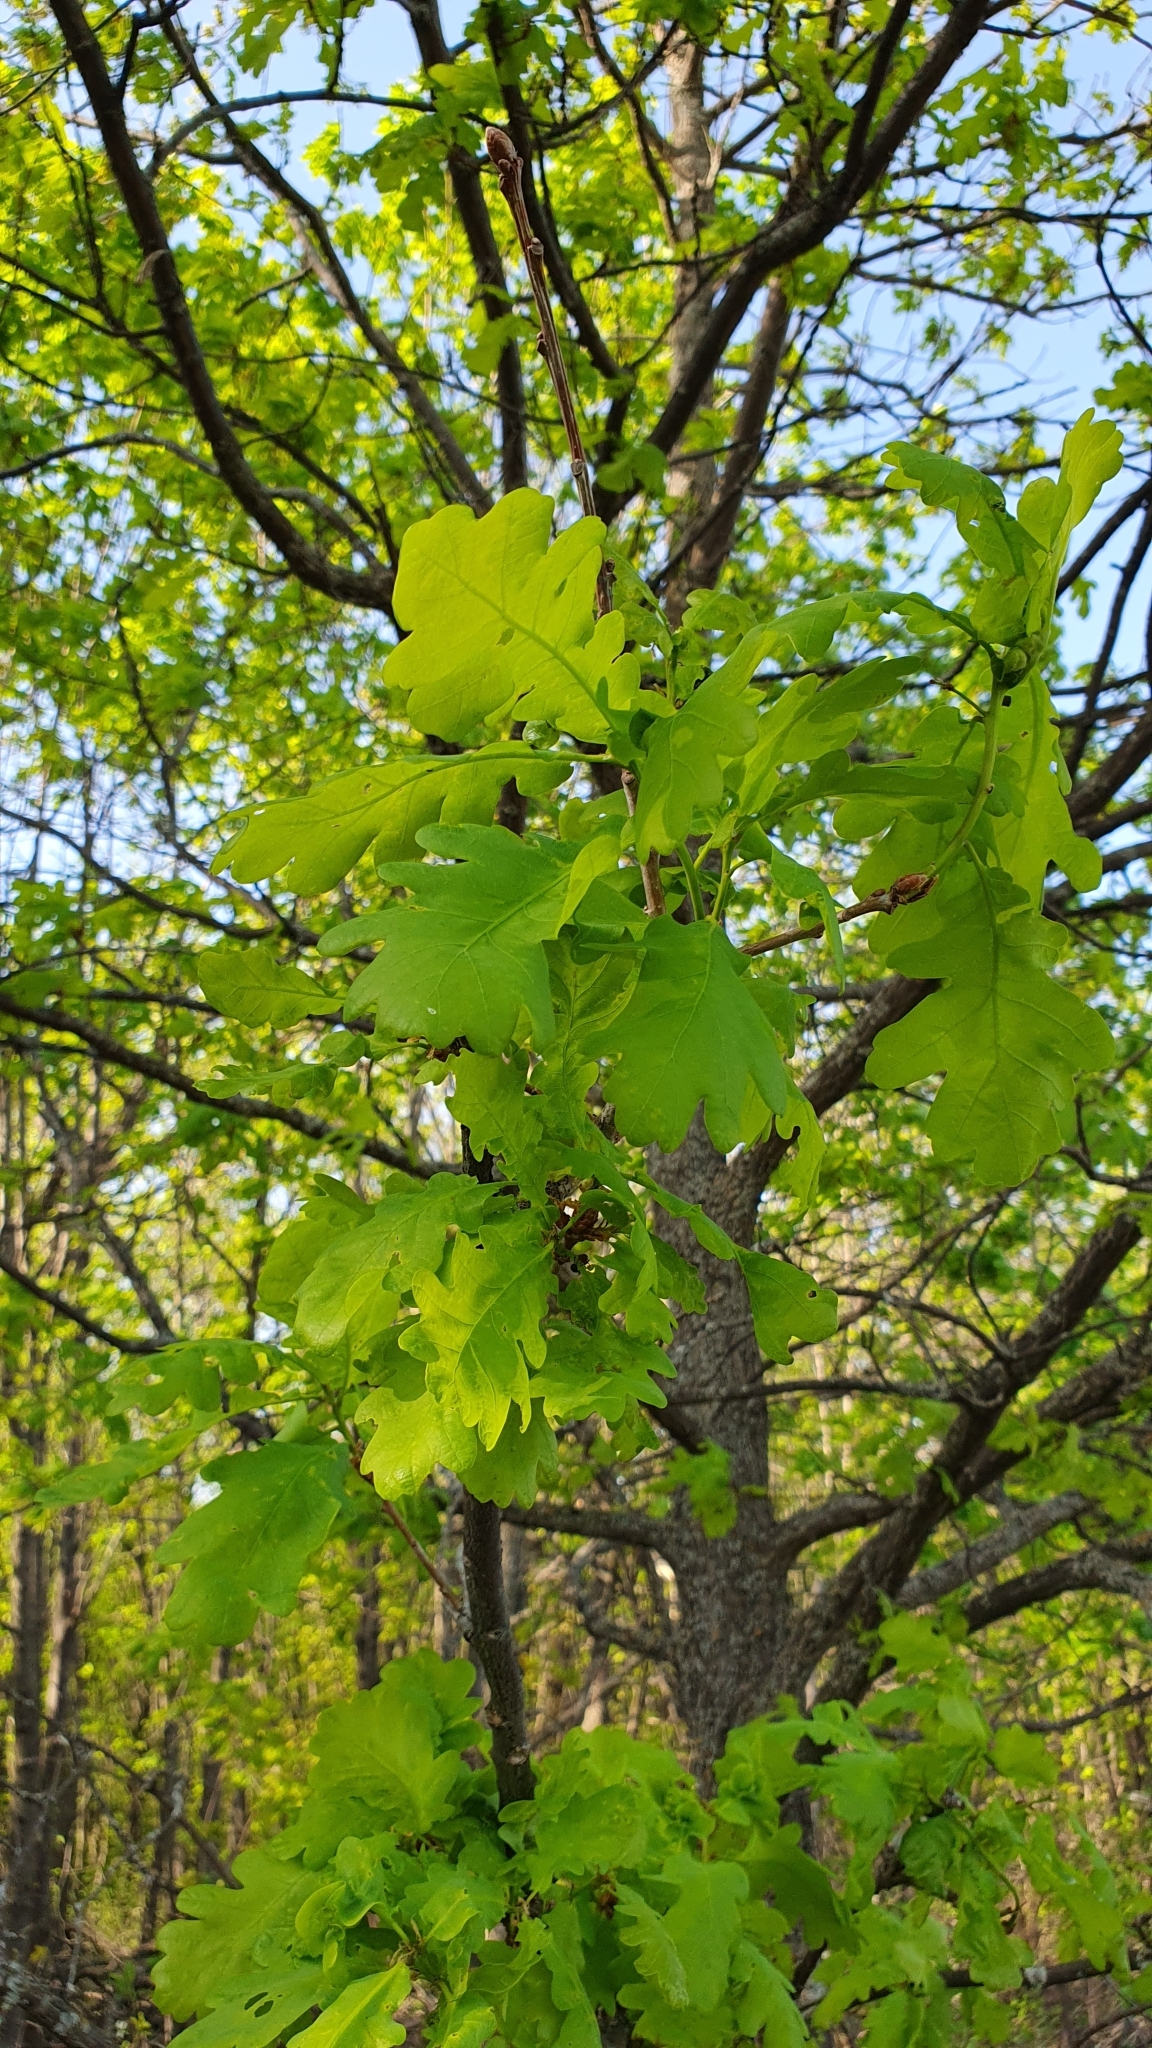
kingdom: Plantae
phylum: Tracheophyta
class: Magnoliopsida
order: Fagales
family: Fagaceae
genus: Quercus
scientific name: Quercus robur
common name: Pedunculate oak
